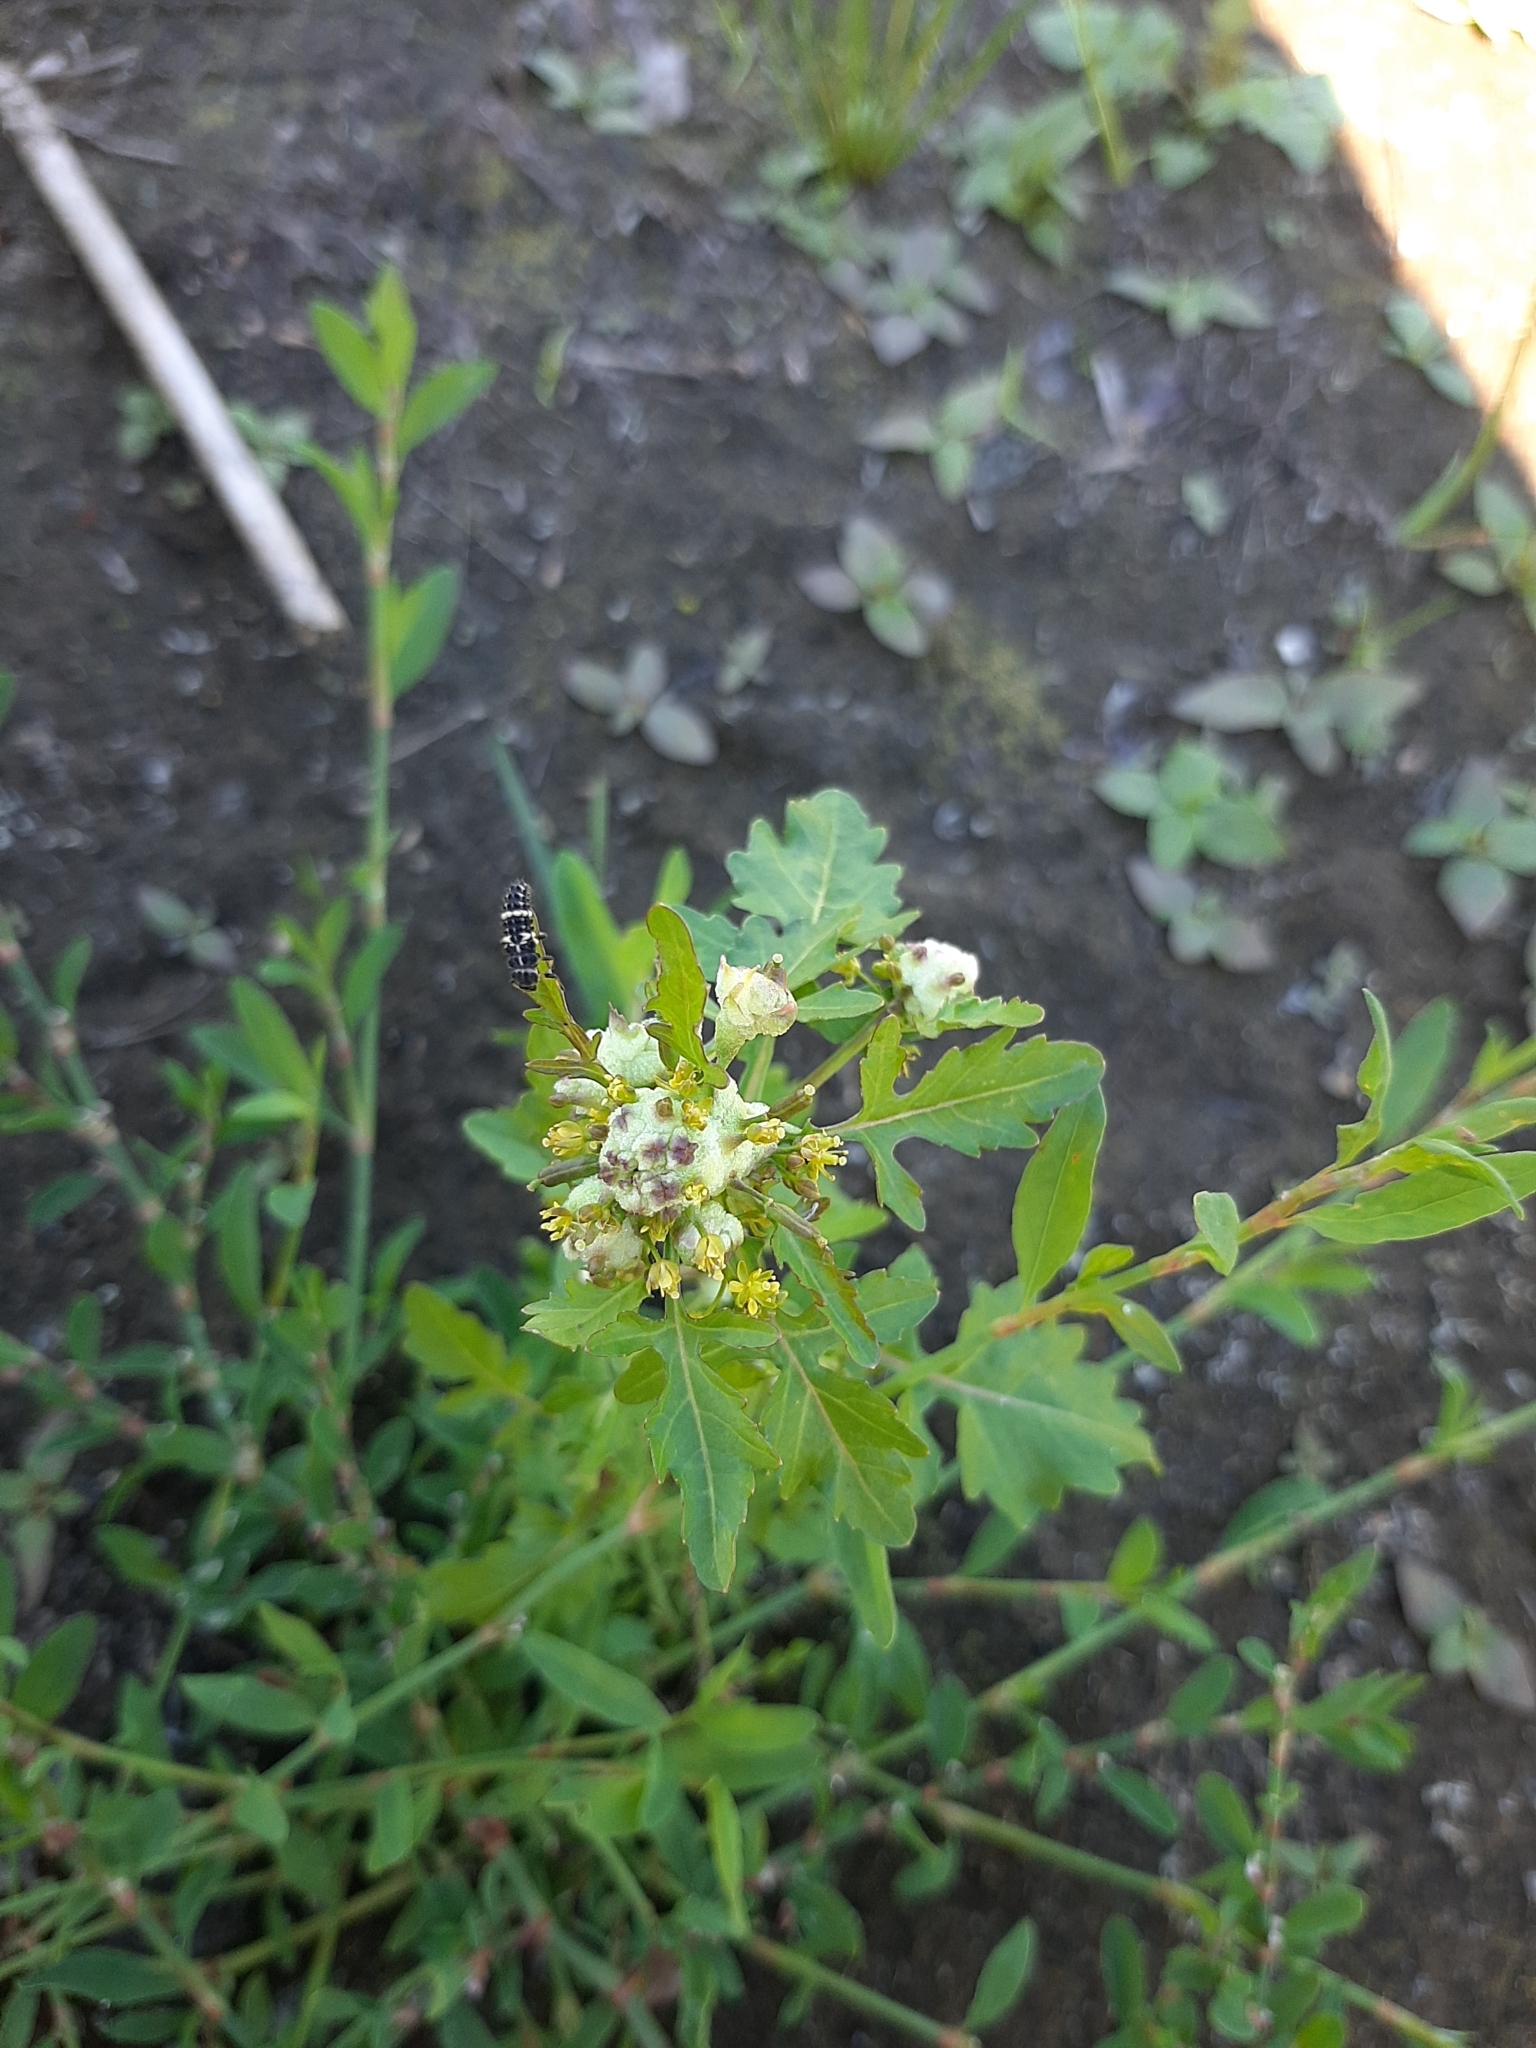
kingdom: Plantae
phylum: Tracheophyta
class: Magnoliopsida
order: Brassicales
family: Brassicaceae
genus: Rorippa
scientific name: Rorippa palustris
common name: Marsh yellow-cress
